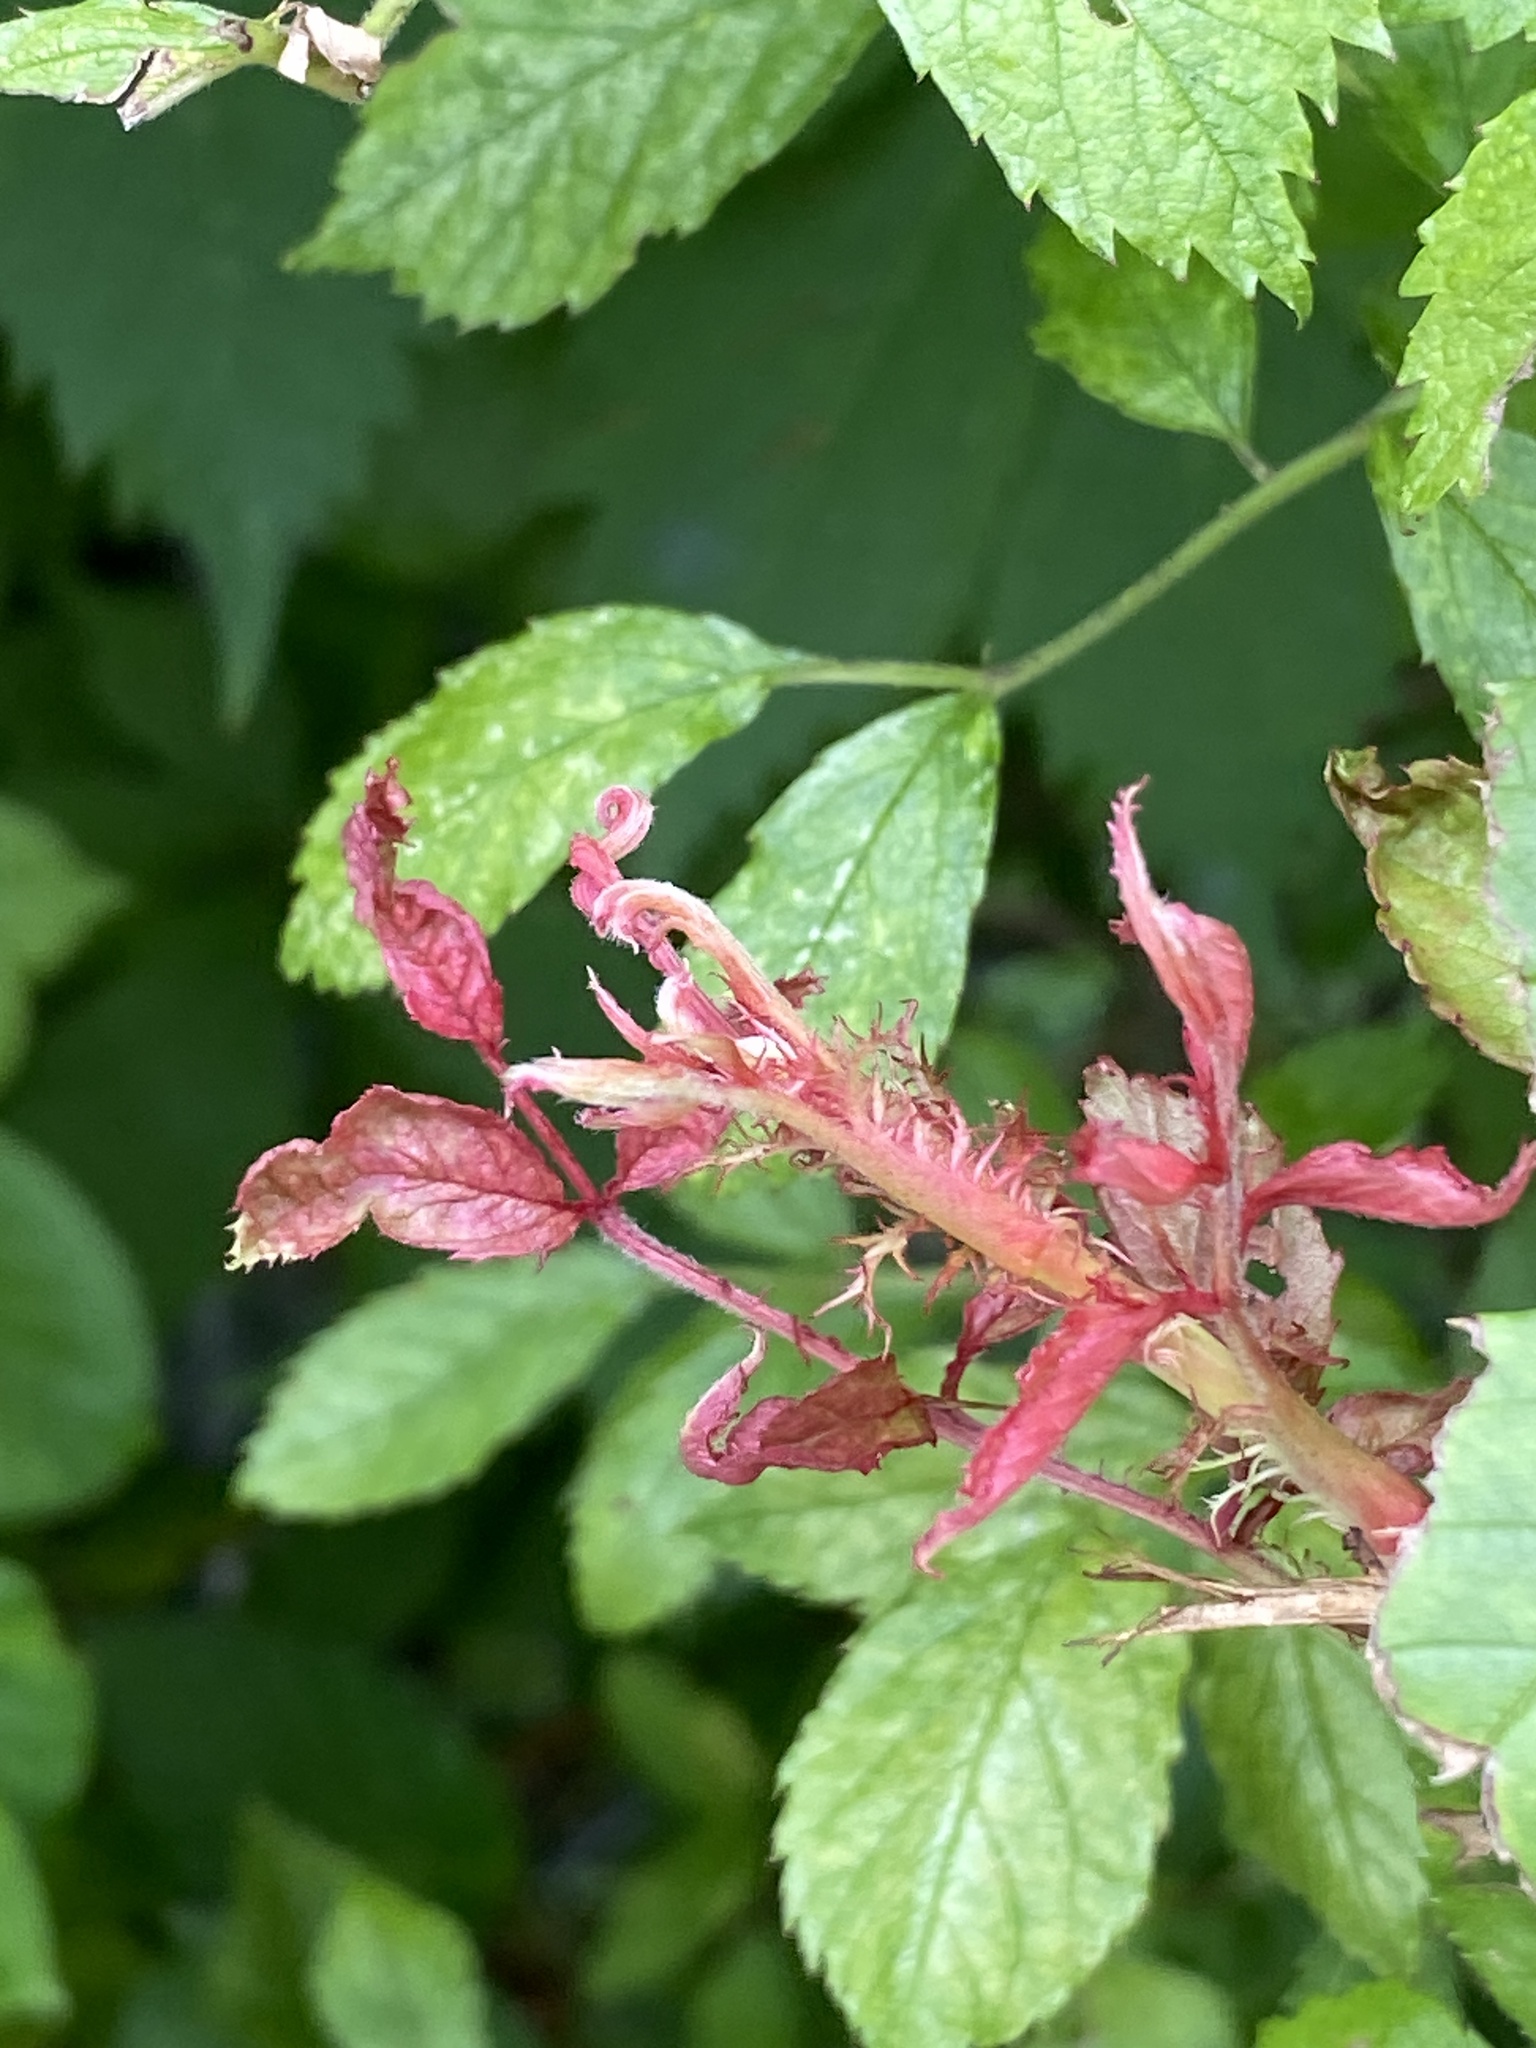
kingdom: Viruses
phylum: Negarnaviricota
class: Ellioviricetes
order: Bunyavirales
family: Fimoviridae
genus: Emaravirus
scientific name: Emaravirus rosae
